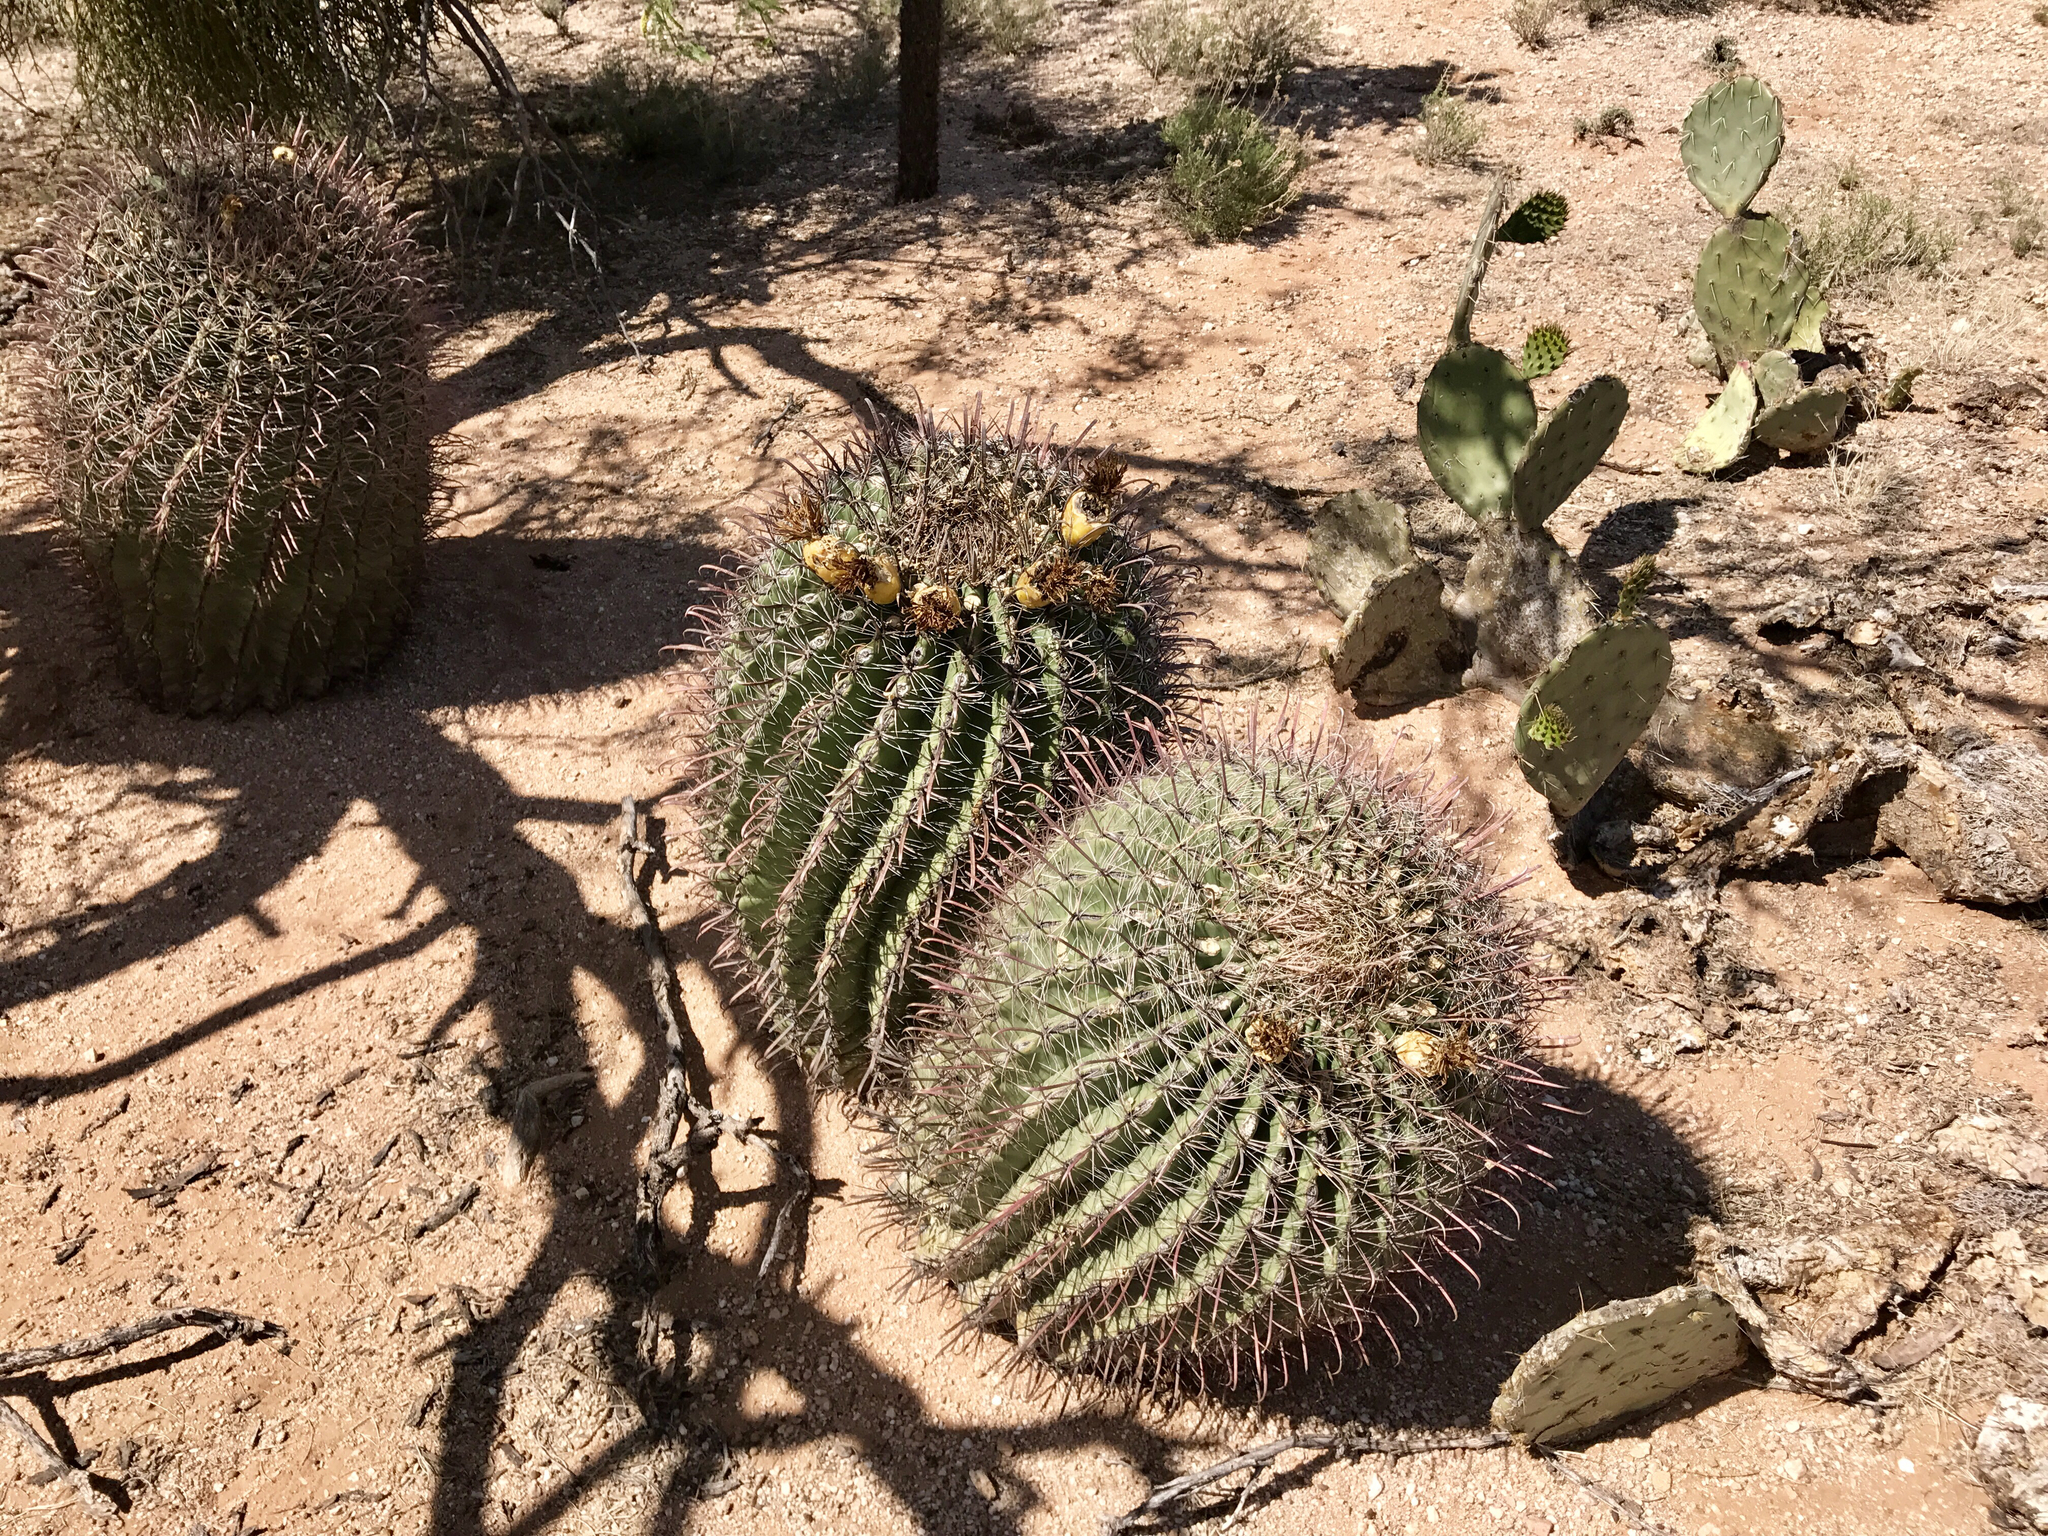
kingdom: Plantae
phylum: Tracheophyta
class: Magnoliopsida
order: Caryophyllales
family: Cactaceae
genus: Ferocactus
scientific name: Ferocactus wislizeni
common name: Candy barrel cactus
